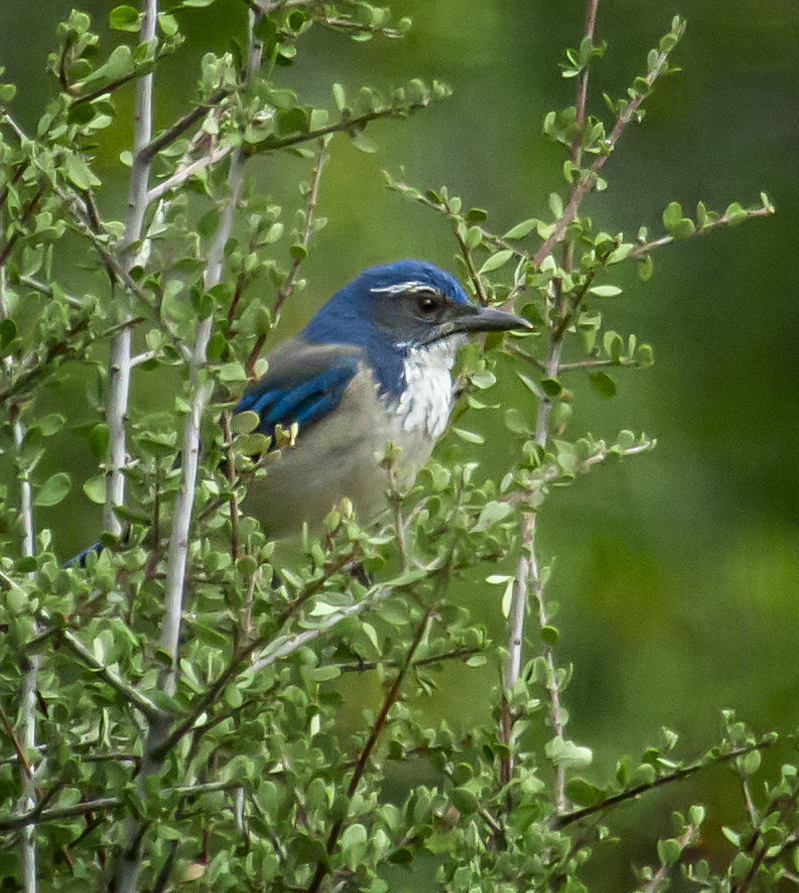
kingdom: Animalia
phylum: Chordata
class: Aves
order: Passeriformes
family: Corvidae
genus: Aphelocoma
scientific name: Aphelocoma californica
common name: California scrub-jay
